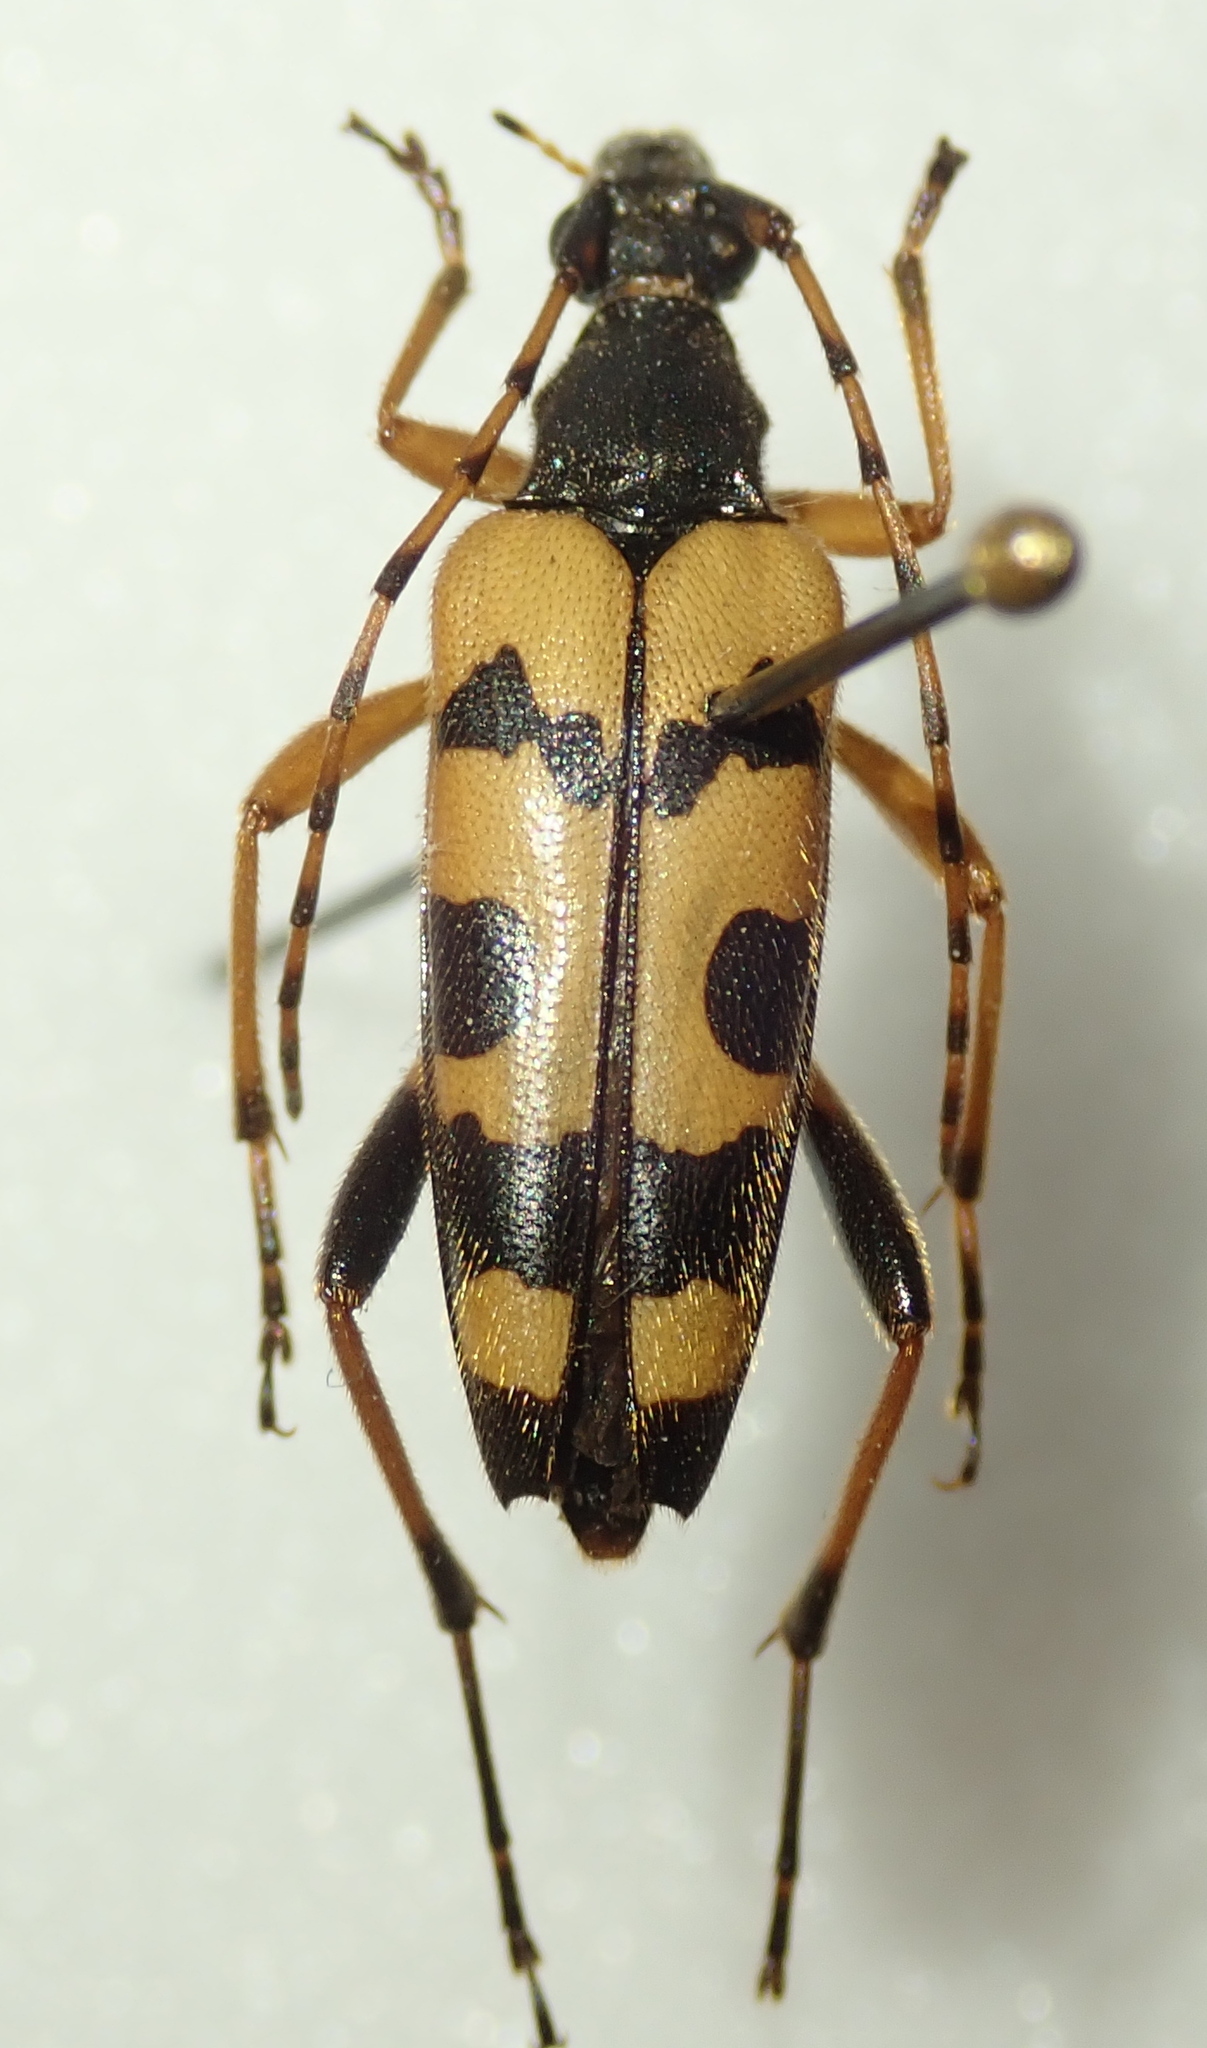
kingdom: Animalia
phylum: Arthropoda
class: Insecta
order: Coleoptera
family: Cerambycidae
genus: Rutpela
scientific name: Rutpela maculata
